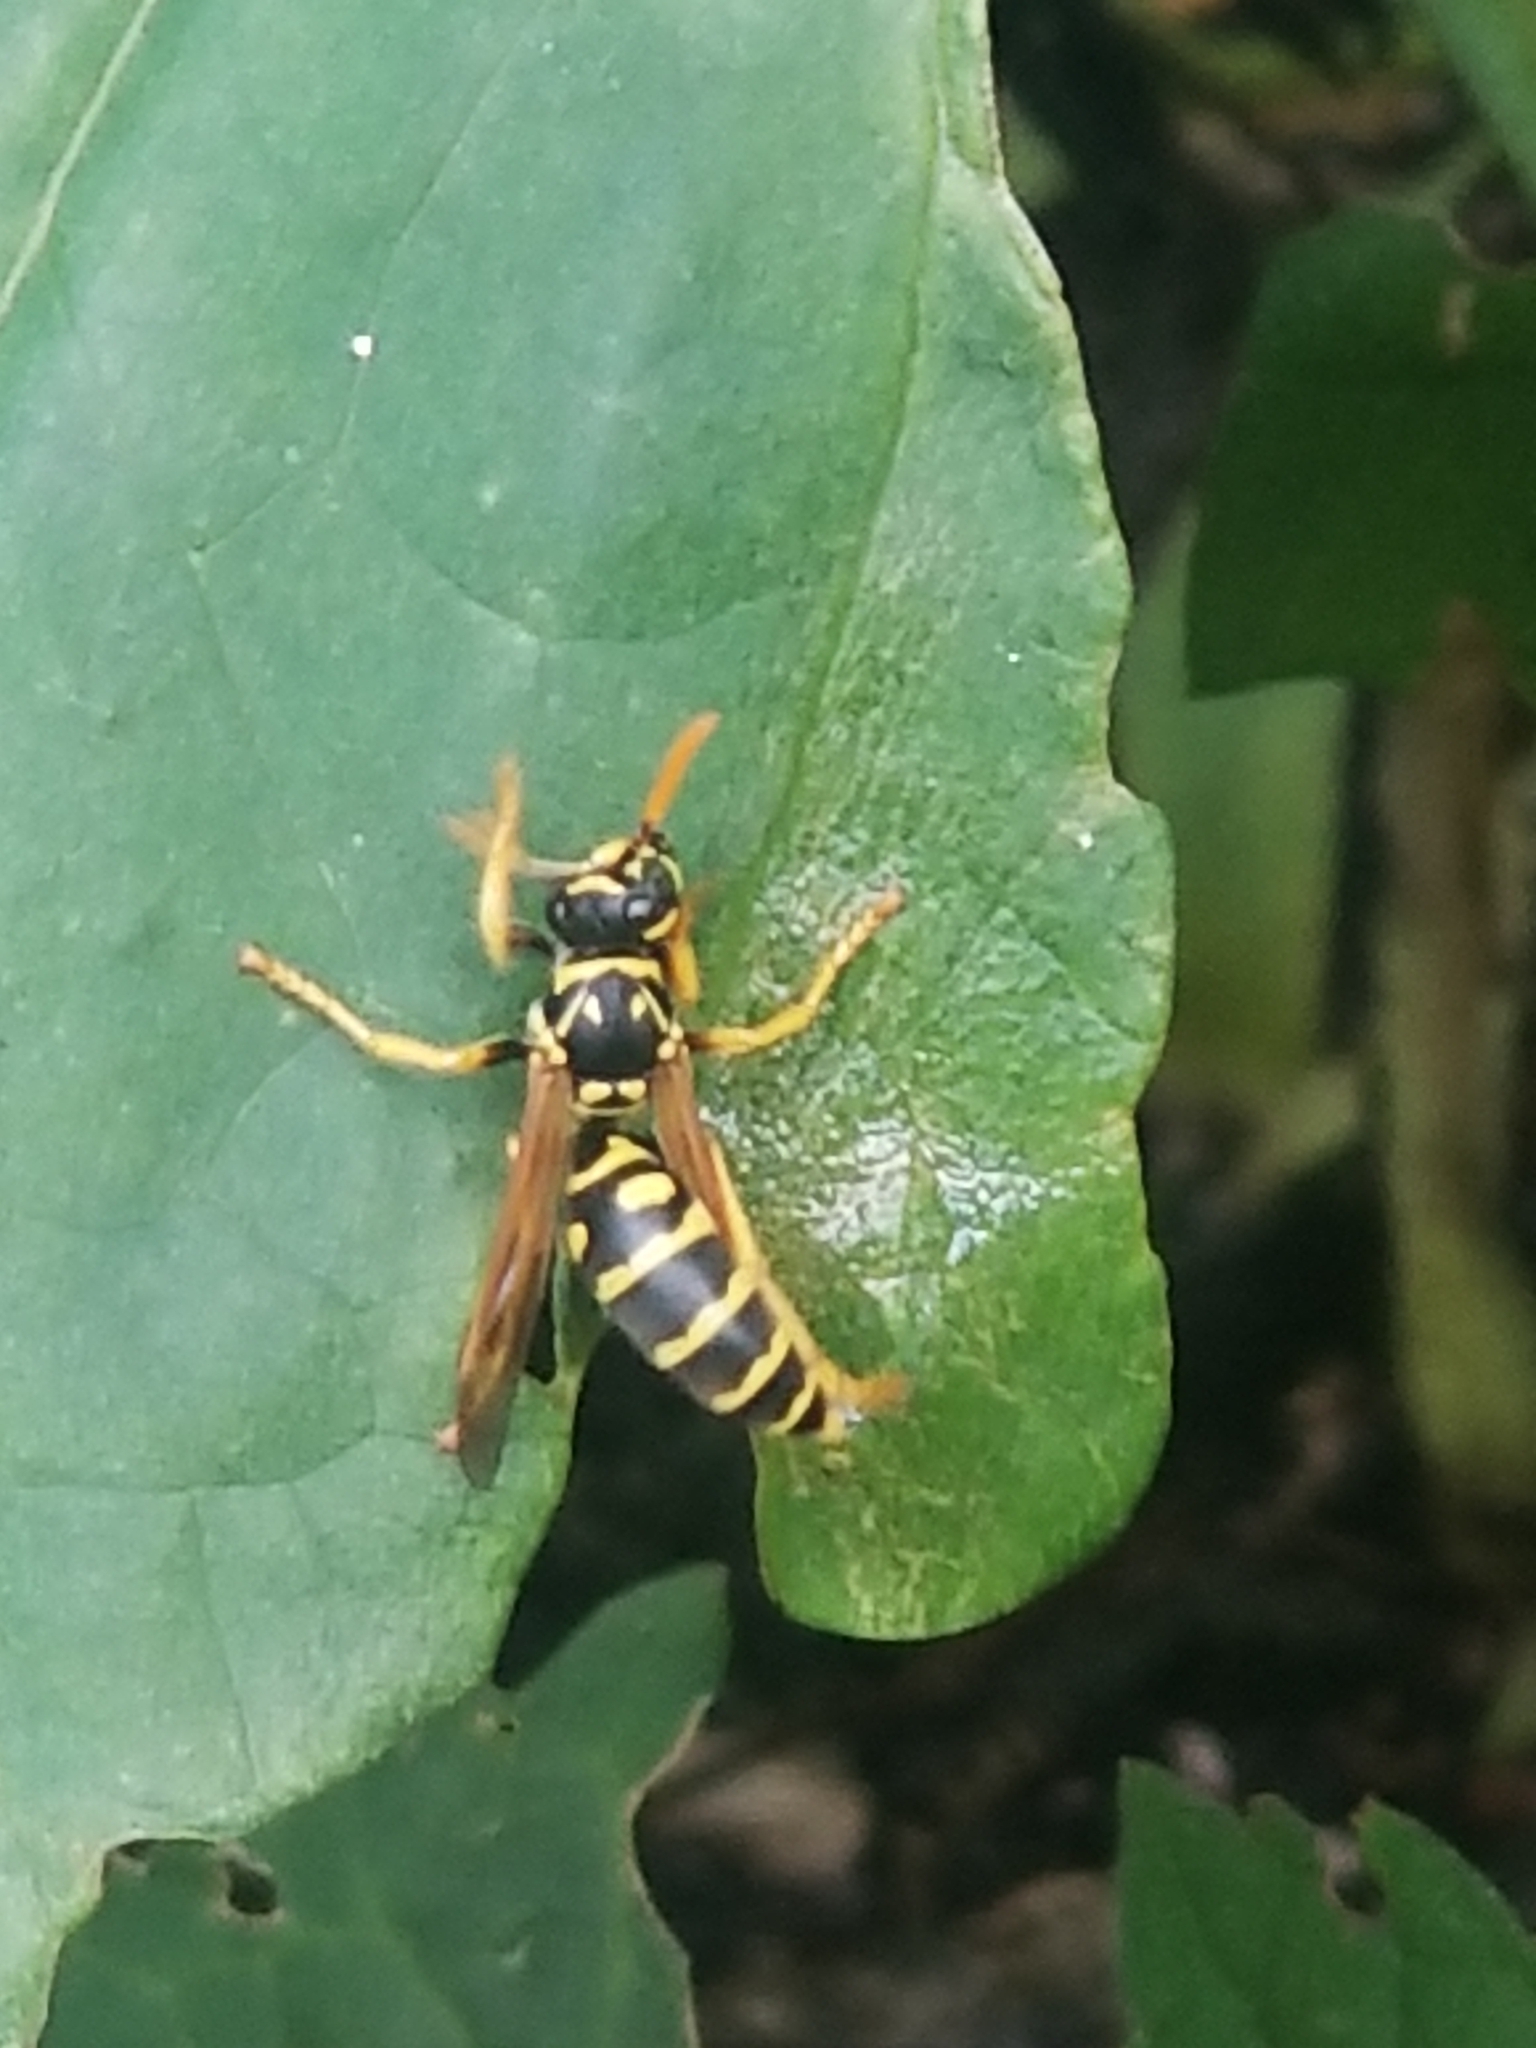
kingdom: Animalia
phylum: Arthropoda
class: Insecta
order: Hymenoptera
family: Eumenidae
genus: Polistes
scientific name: Polistes dominula
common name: Paper wasp
